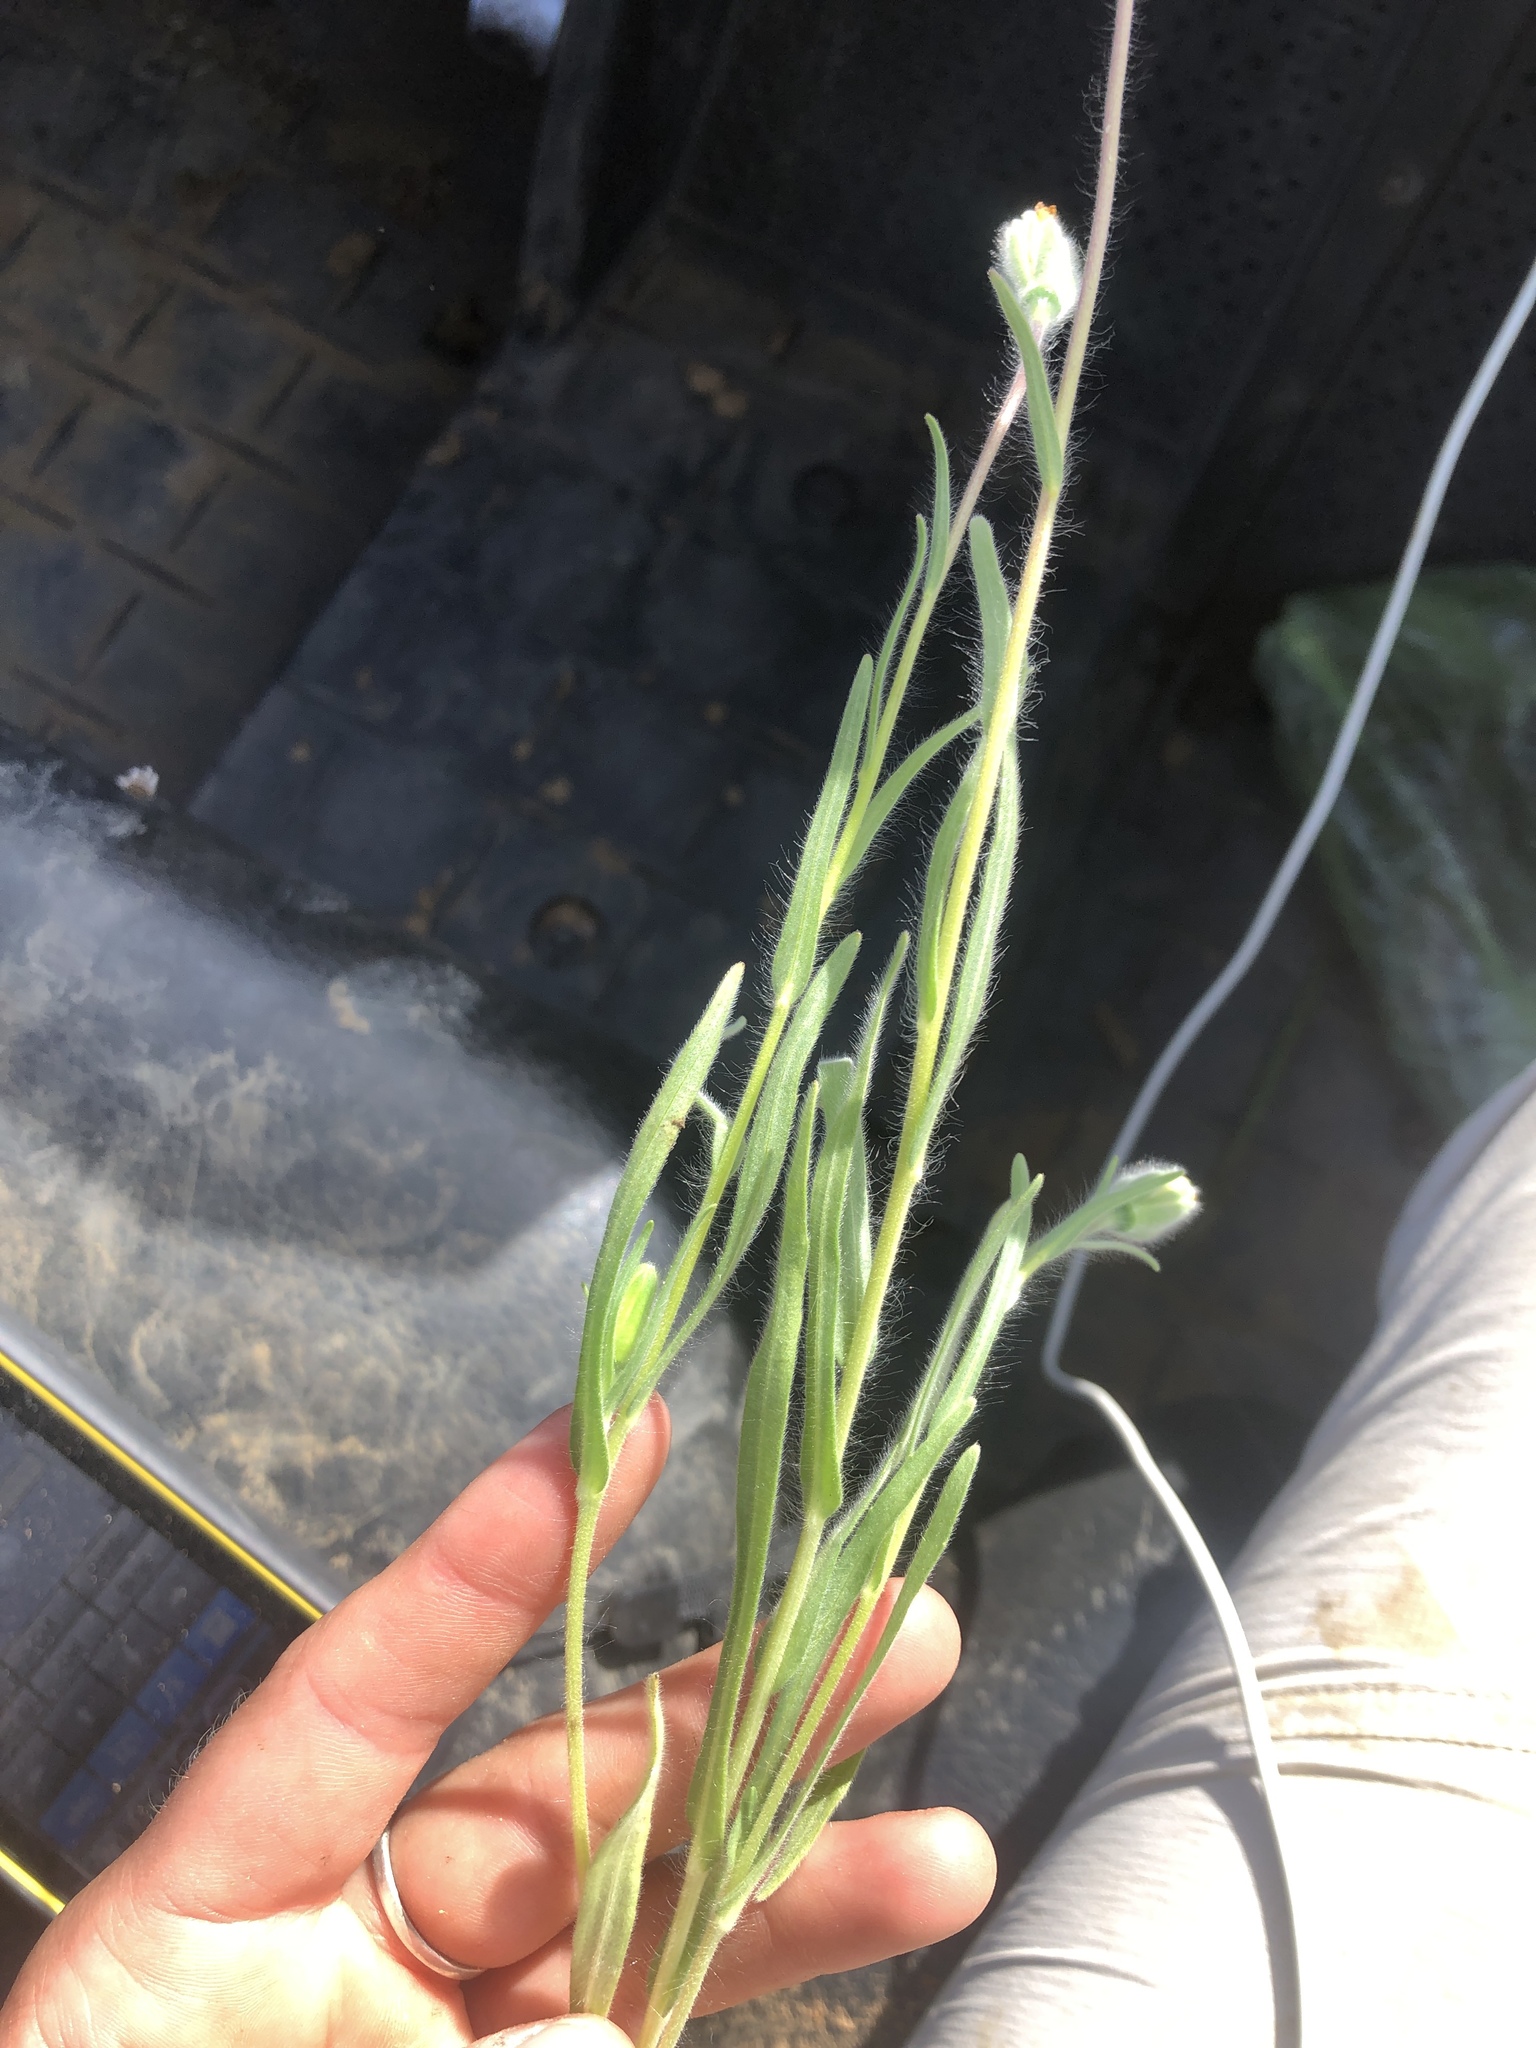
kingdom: Plantae
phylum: Tracheophyta
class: Magnoliopsida
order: Asterales
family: Asteraceae
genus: Achyrachaena
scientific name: Achyrachaena mollis
